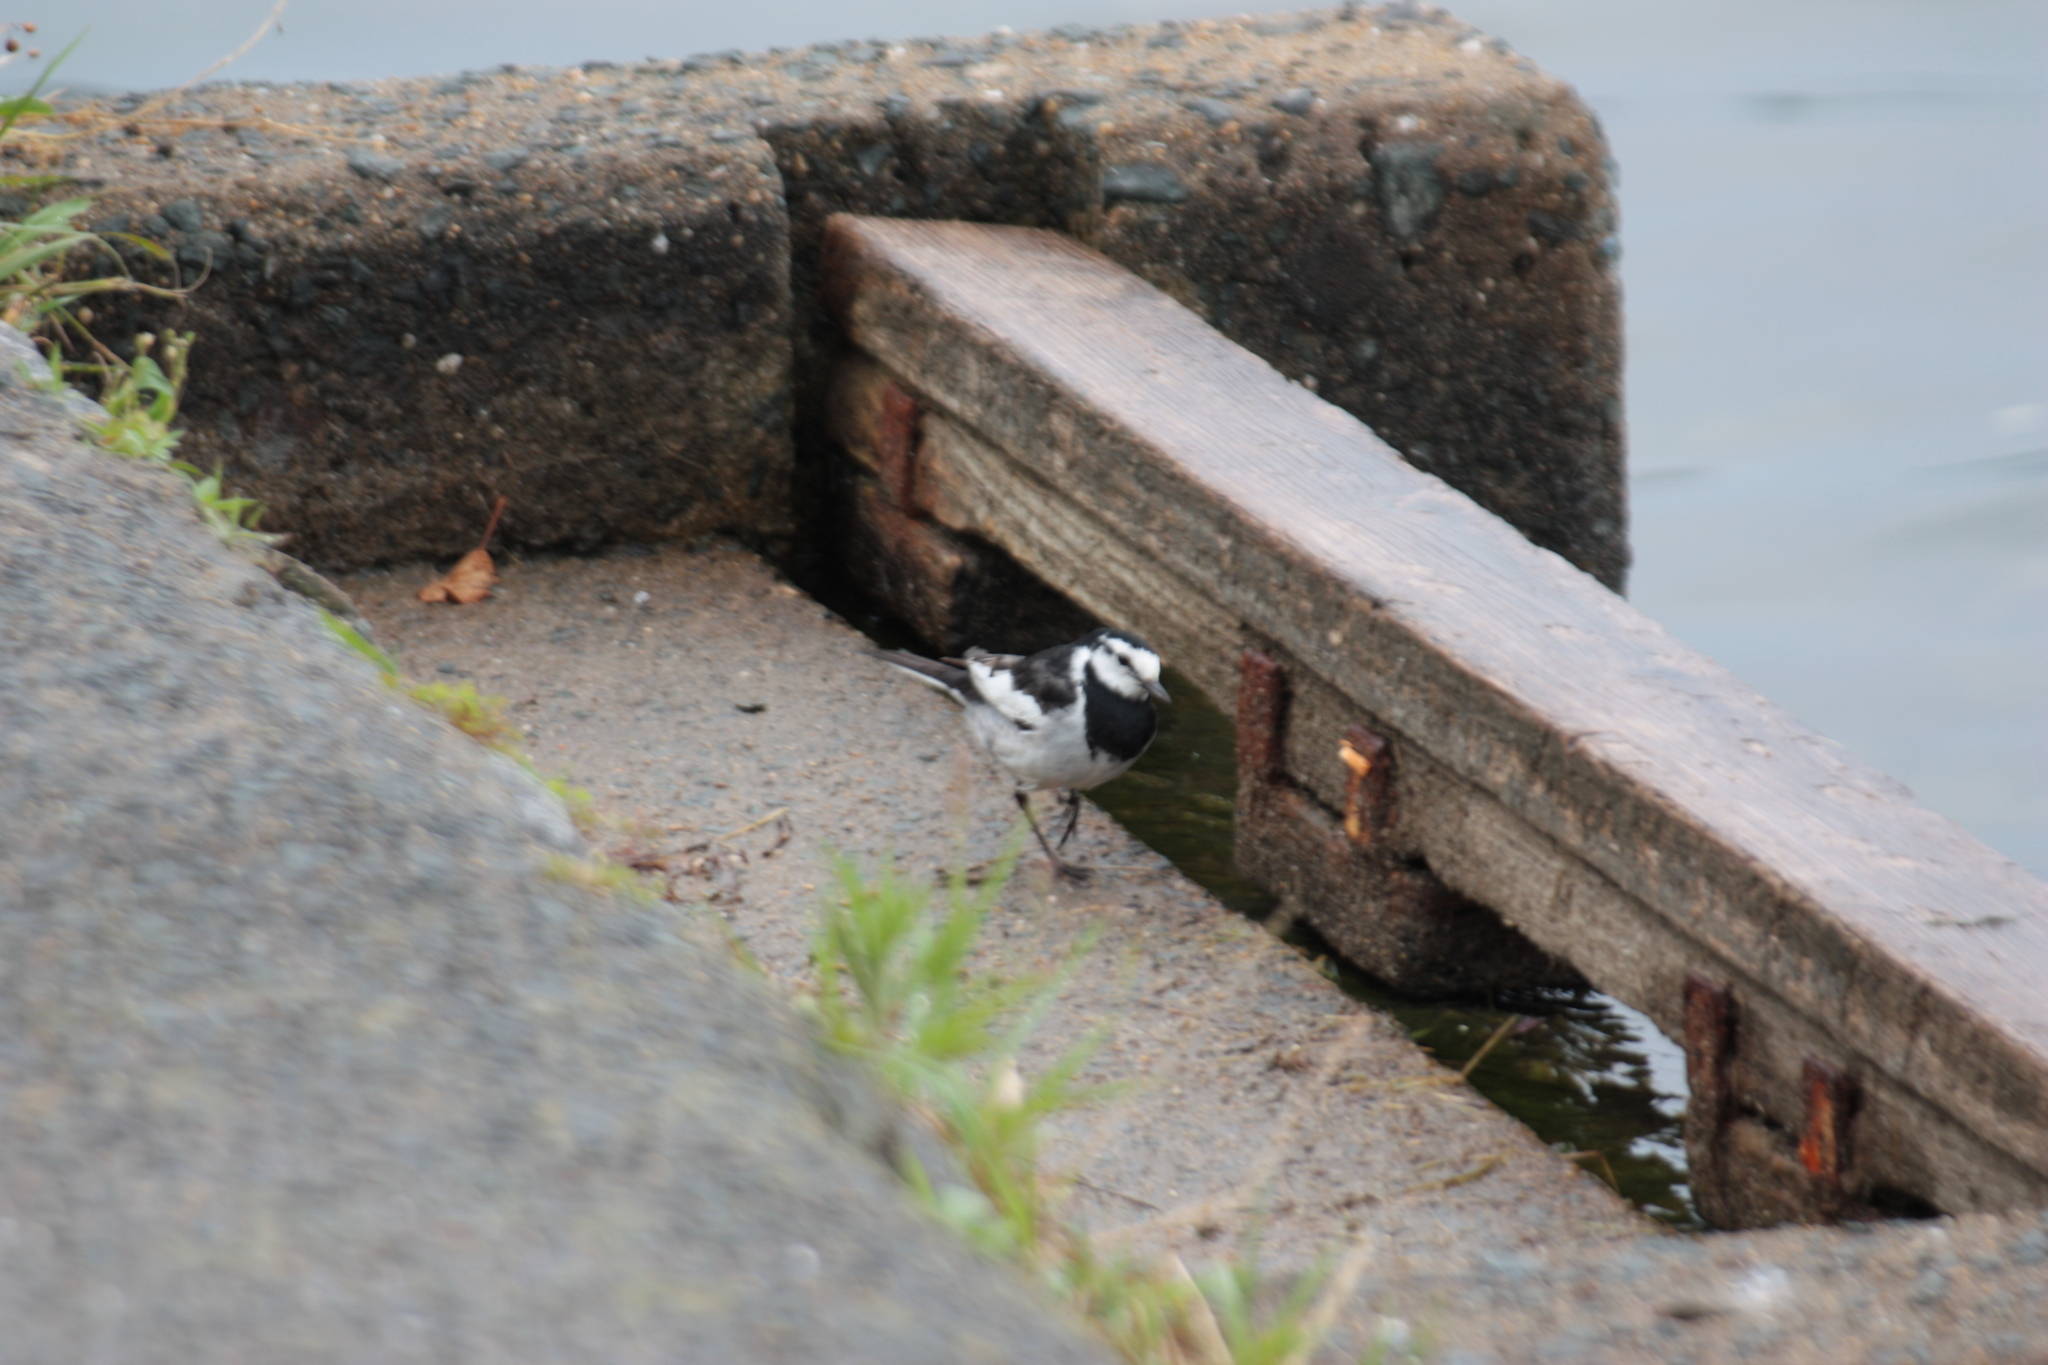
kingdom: Animalia
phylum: Chordata
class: Aves
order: Passeriformes
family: Motacillidae
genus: Motacilla
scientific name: Motacilla alba
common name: White wagtail
